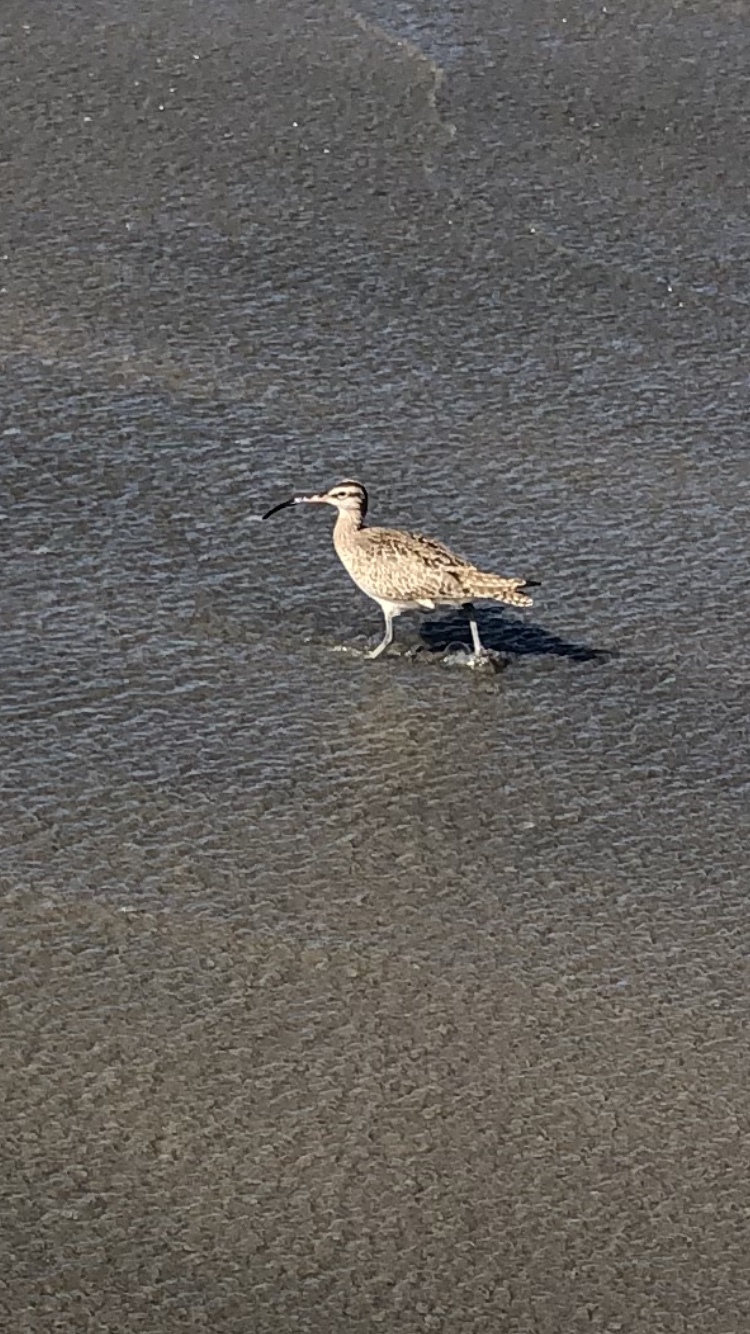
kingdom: Animalia
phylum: Chordata
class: Aves
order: Charadriiformes
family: Scolopacidae
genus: Numenius
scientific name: Numenius phaeopus
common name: Whimbrel
